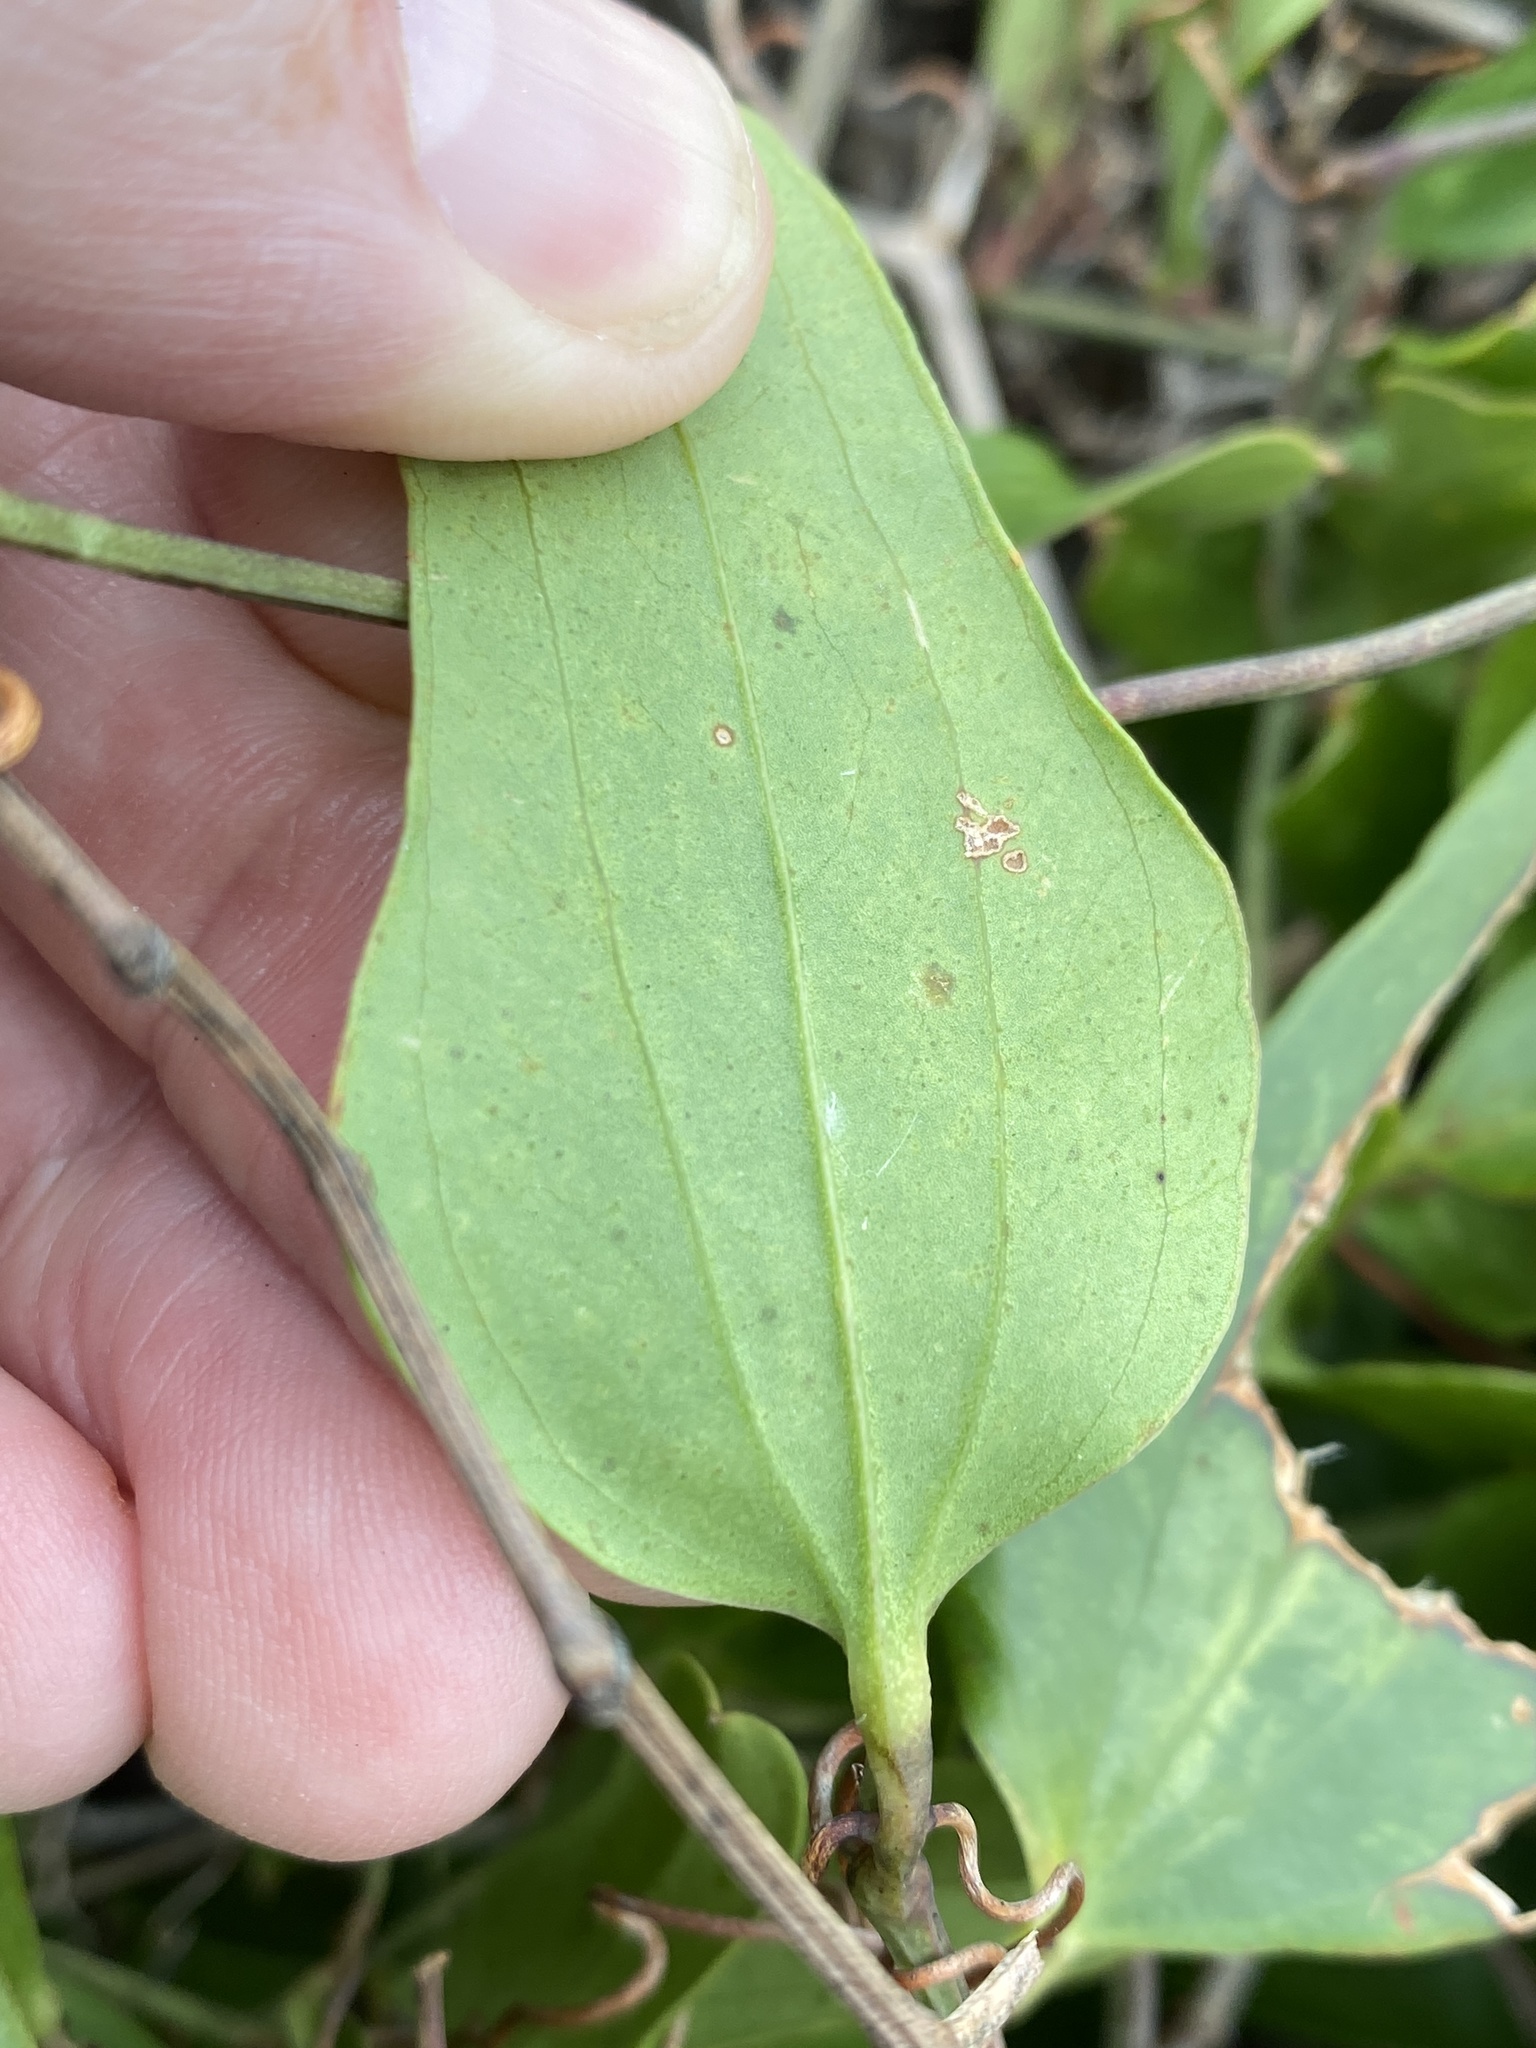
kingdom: Plantae
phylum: Tracheophyta
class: Liliopsida
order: Liliales
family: Smilacaceae
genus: Smilax
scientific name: Smilax bona-nox
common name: Catbrier
